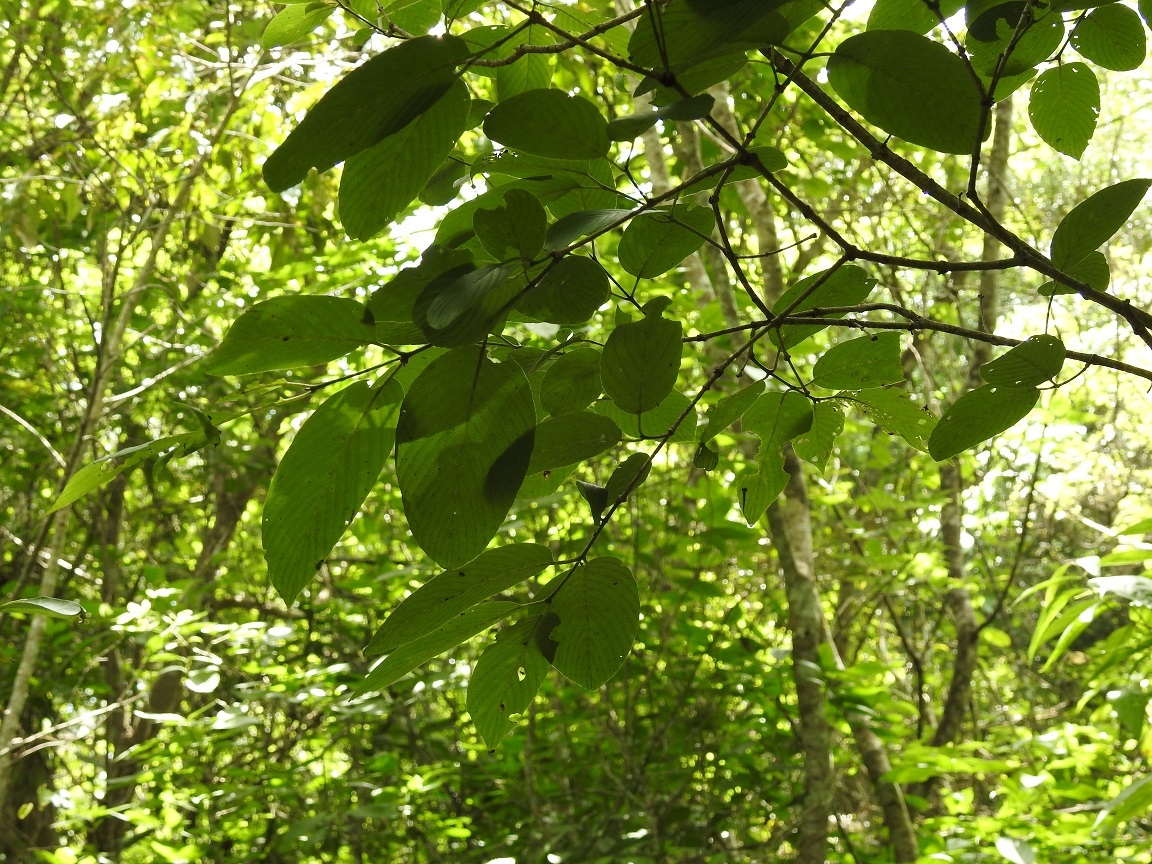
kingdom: Plantae
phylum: Tracheophyta
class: Magnoliopsida
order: Rosales
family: Rhamnaceae
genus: Karwinskia
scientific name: Karwinskia calderonii
